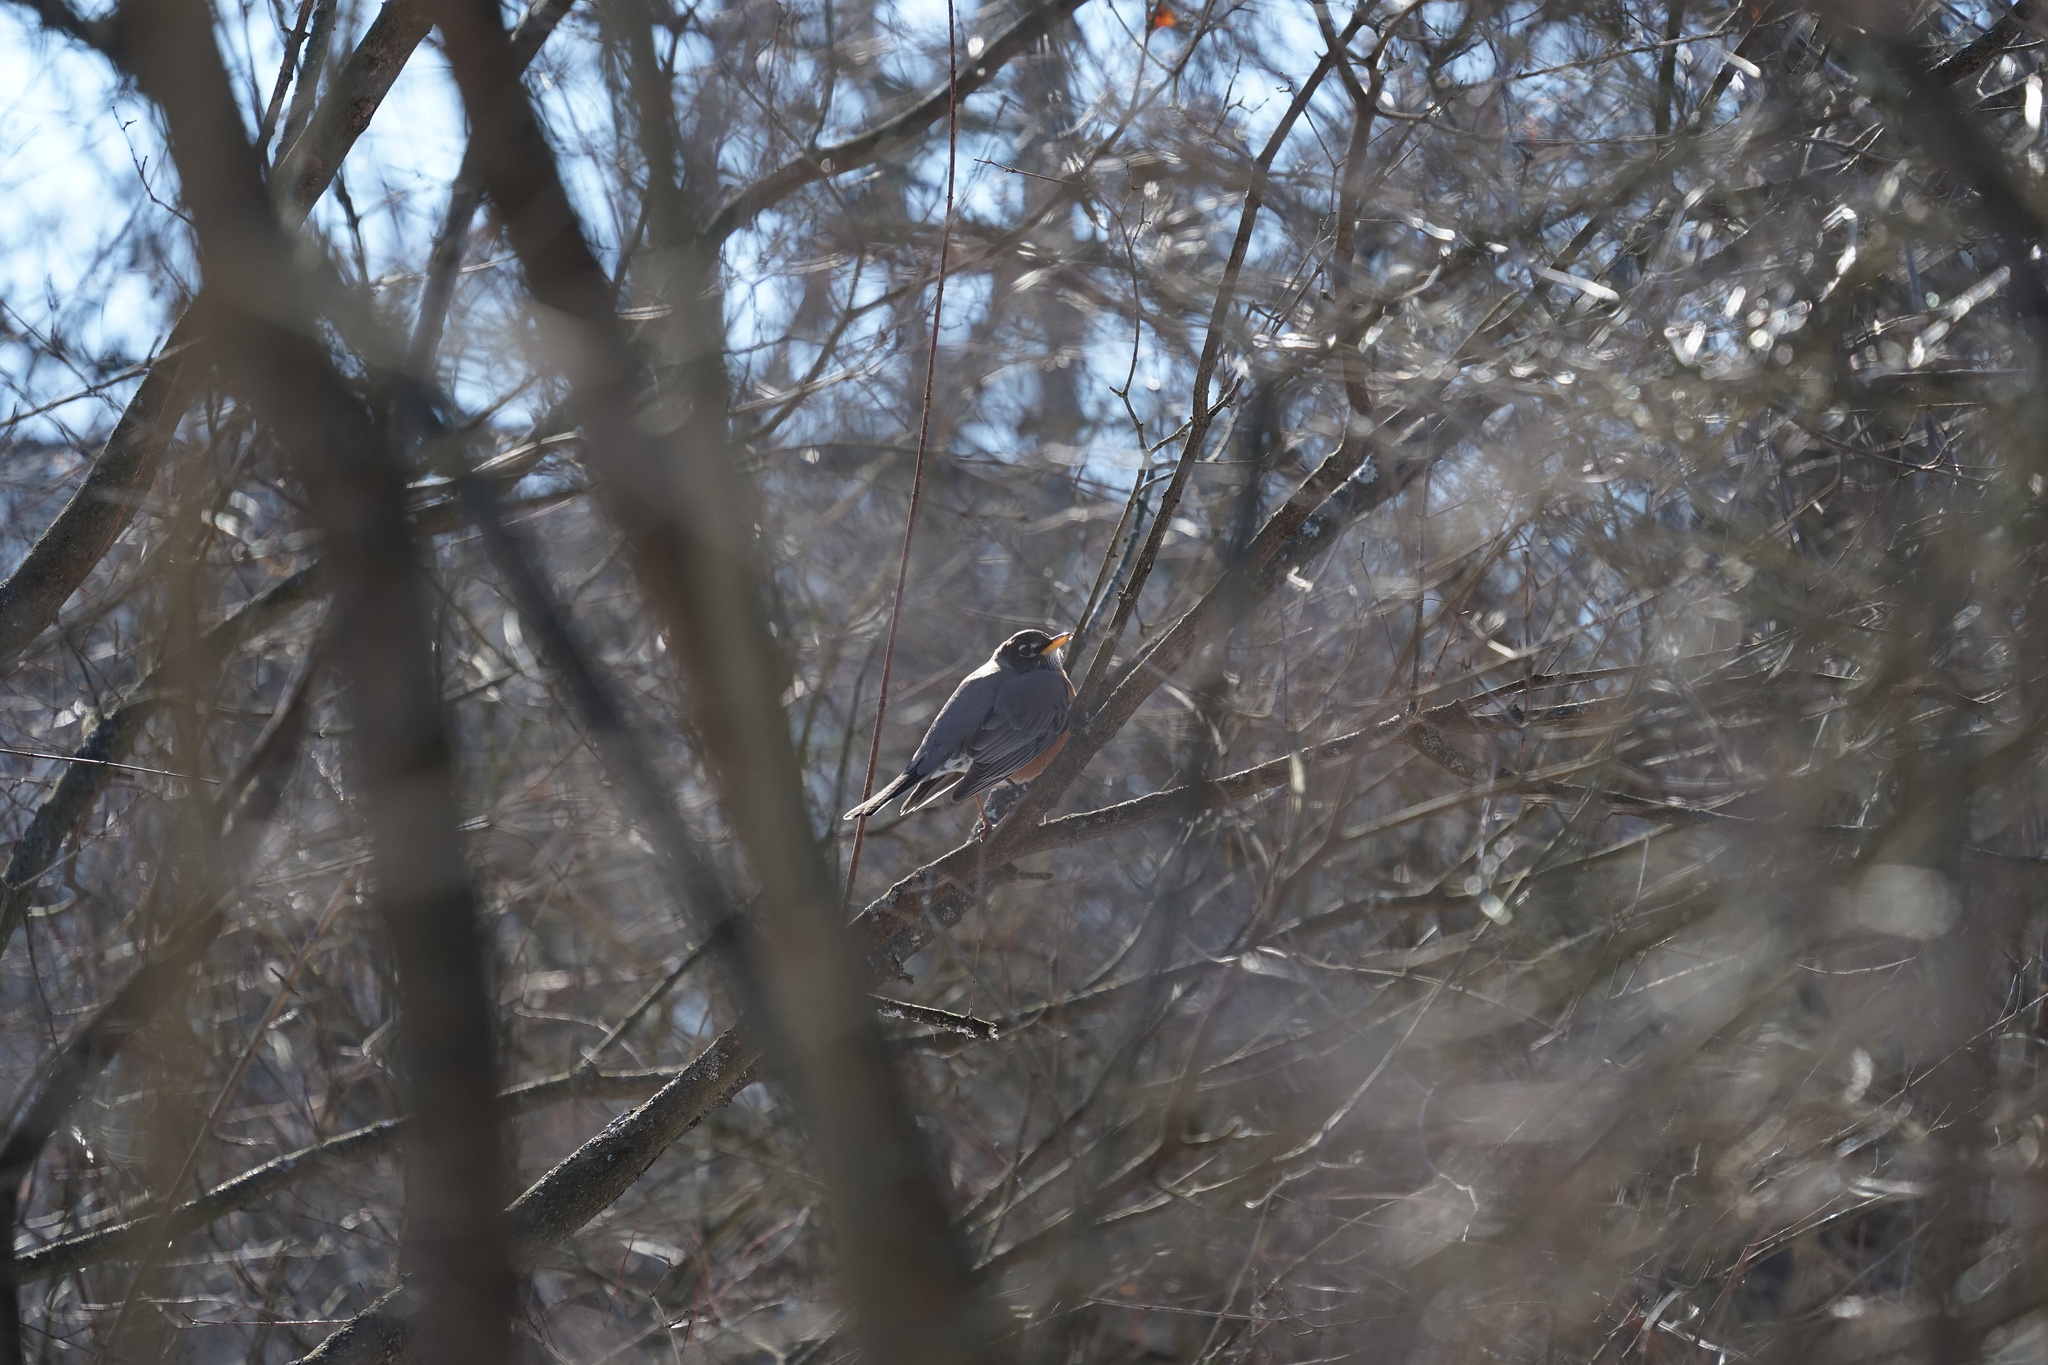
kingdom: Animalia
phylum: Chordata
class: Aves
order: Passeriformes
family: Turdidae
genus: Turdus
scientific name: Turdus migratorius
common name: American robin
